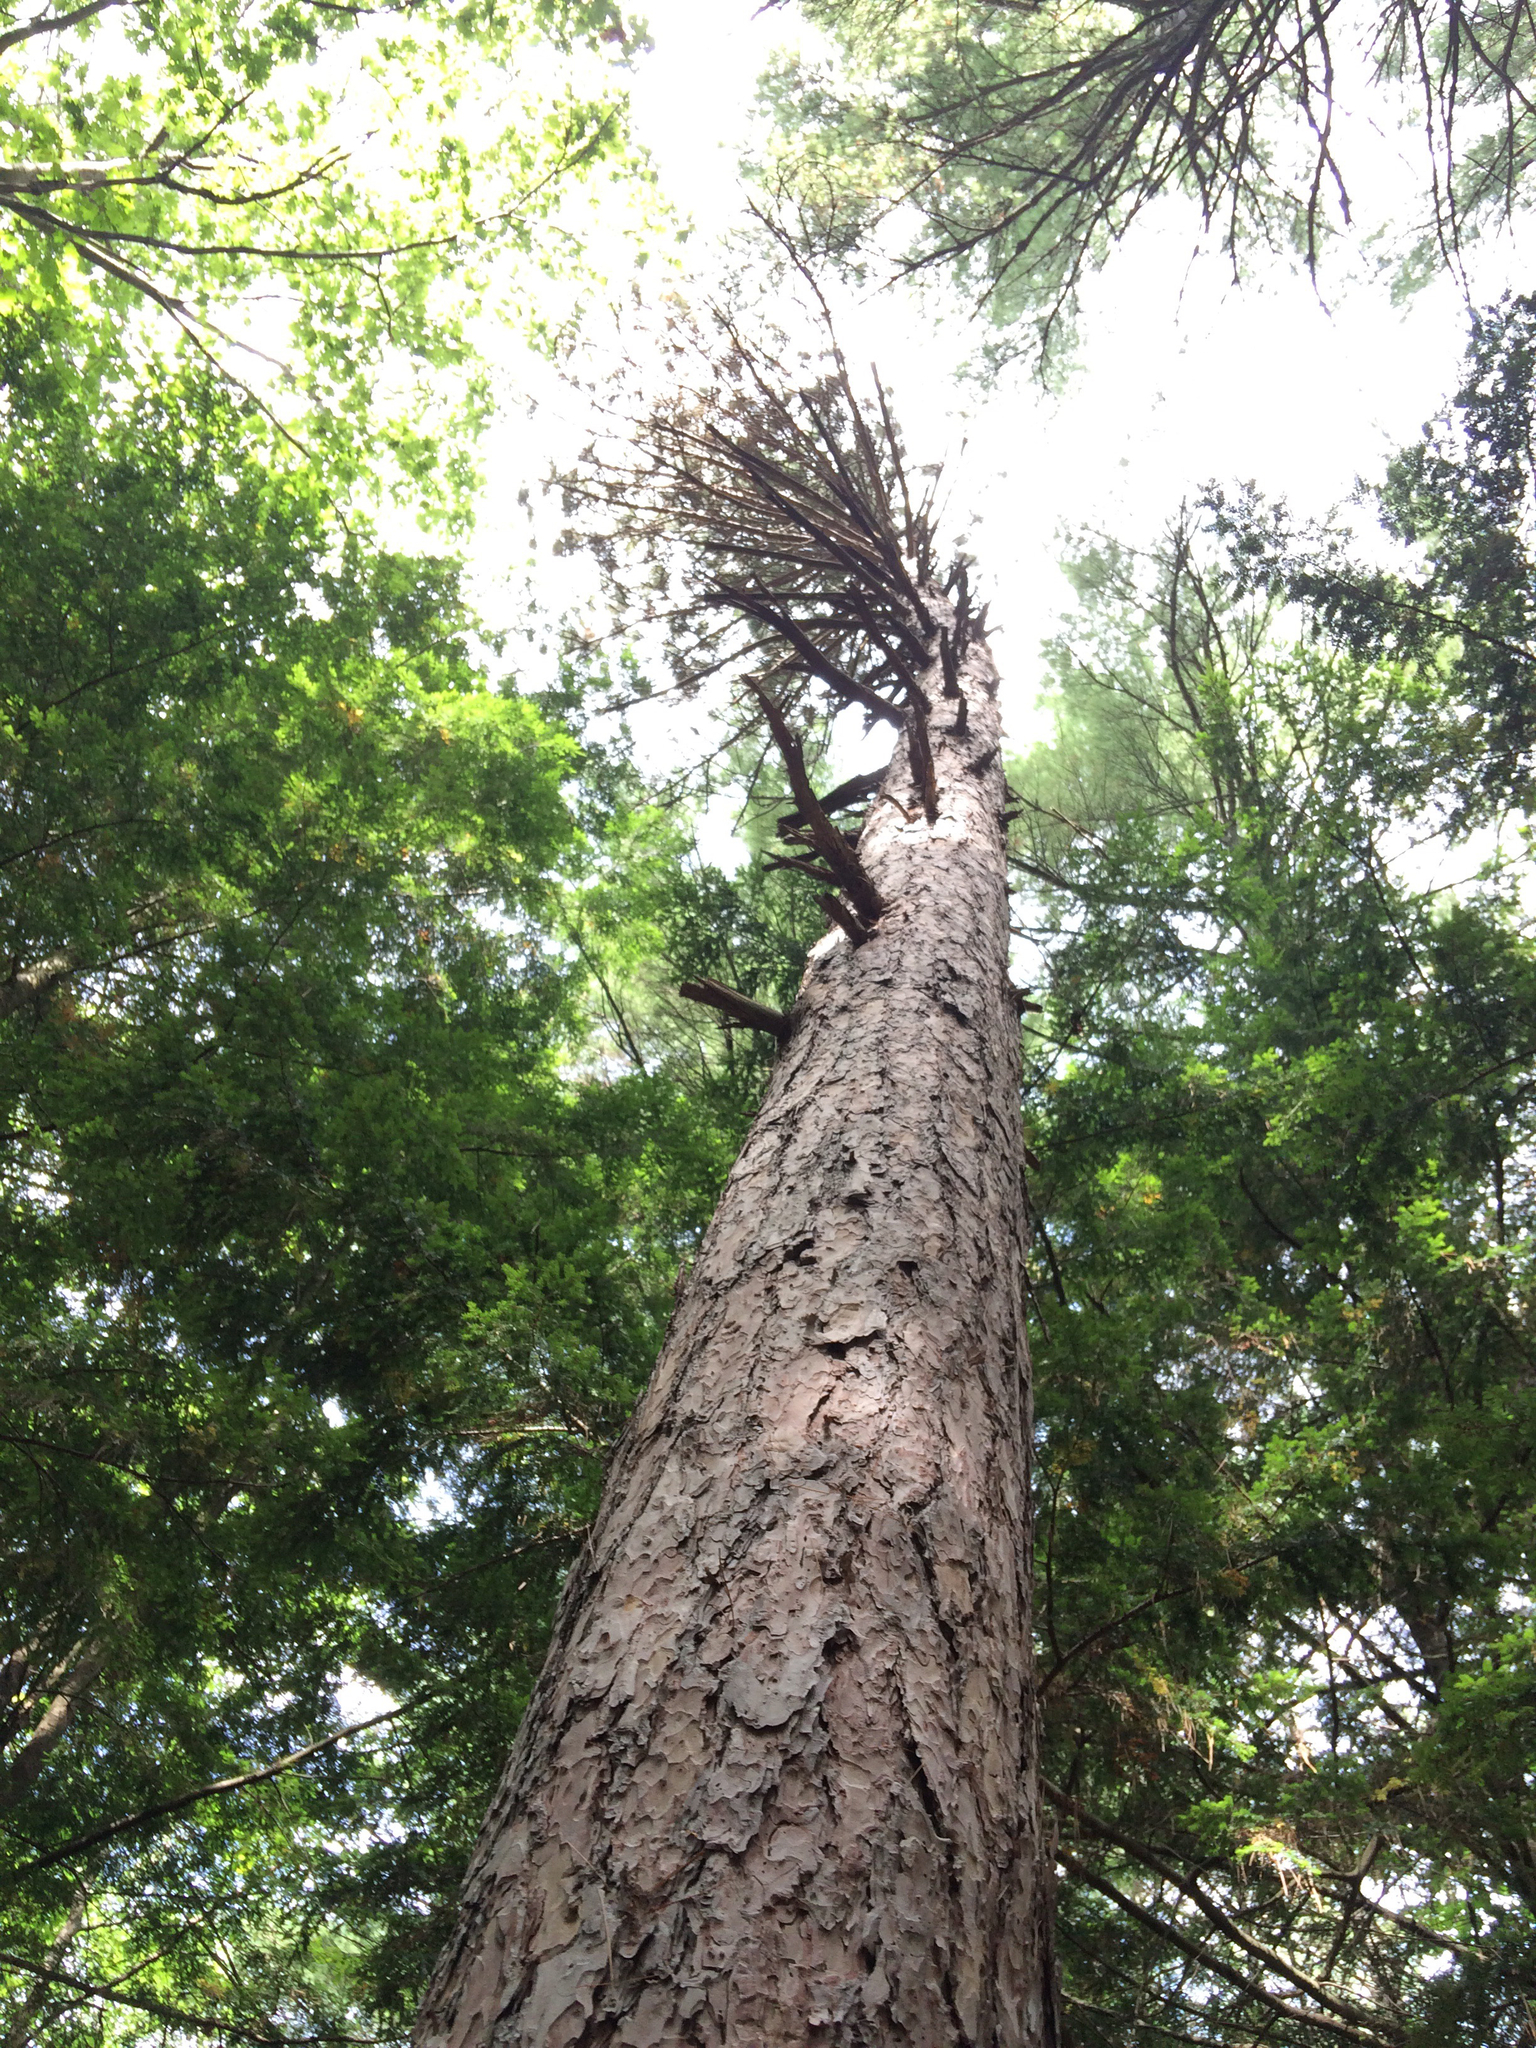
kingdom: Plantae
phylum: Tracheophyta
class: Pinopsida
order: Pinales
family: Pinaceae
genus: Pinus
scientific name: Pinus resinosa
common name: Norway pine
